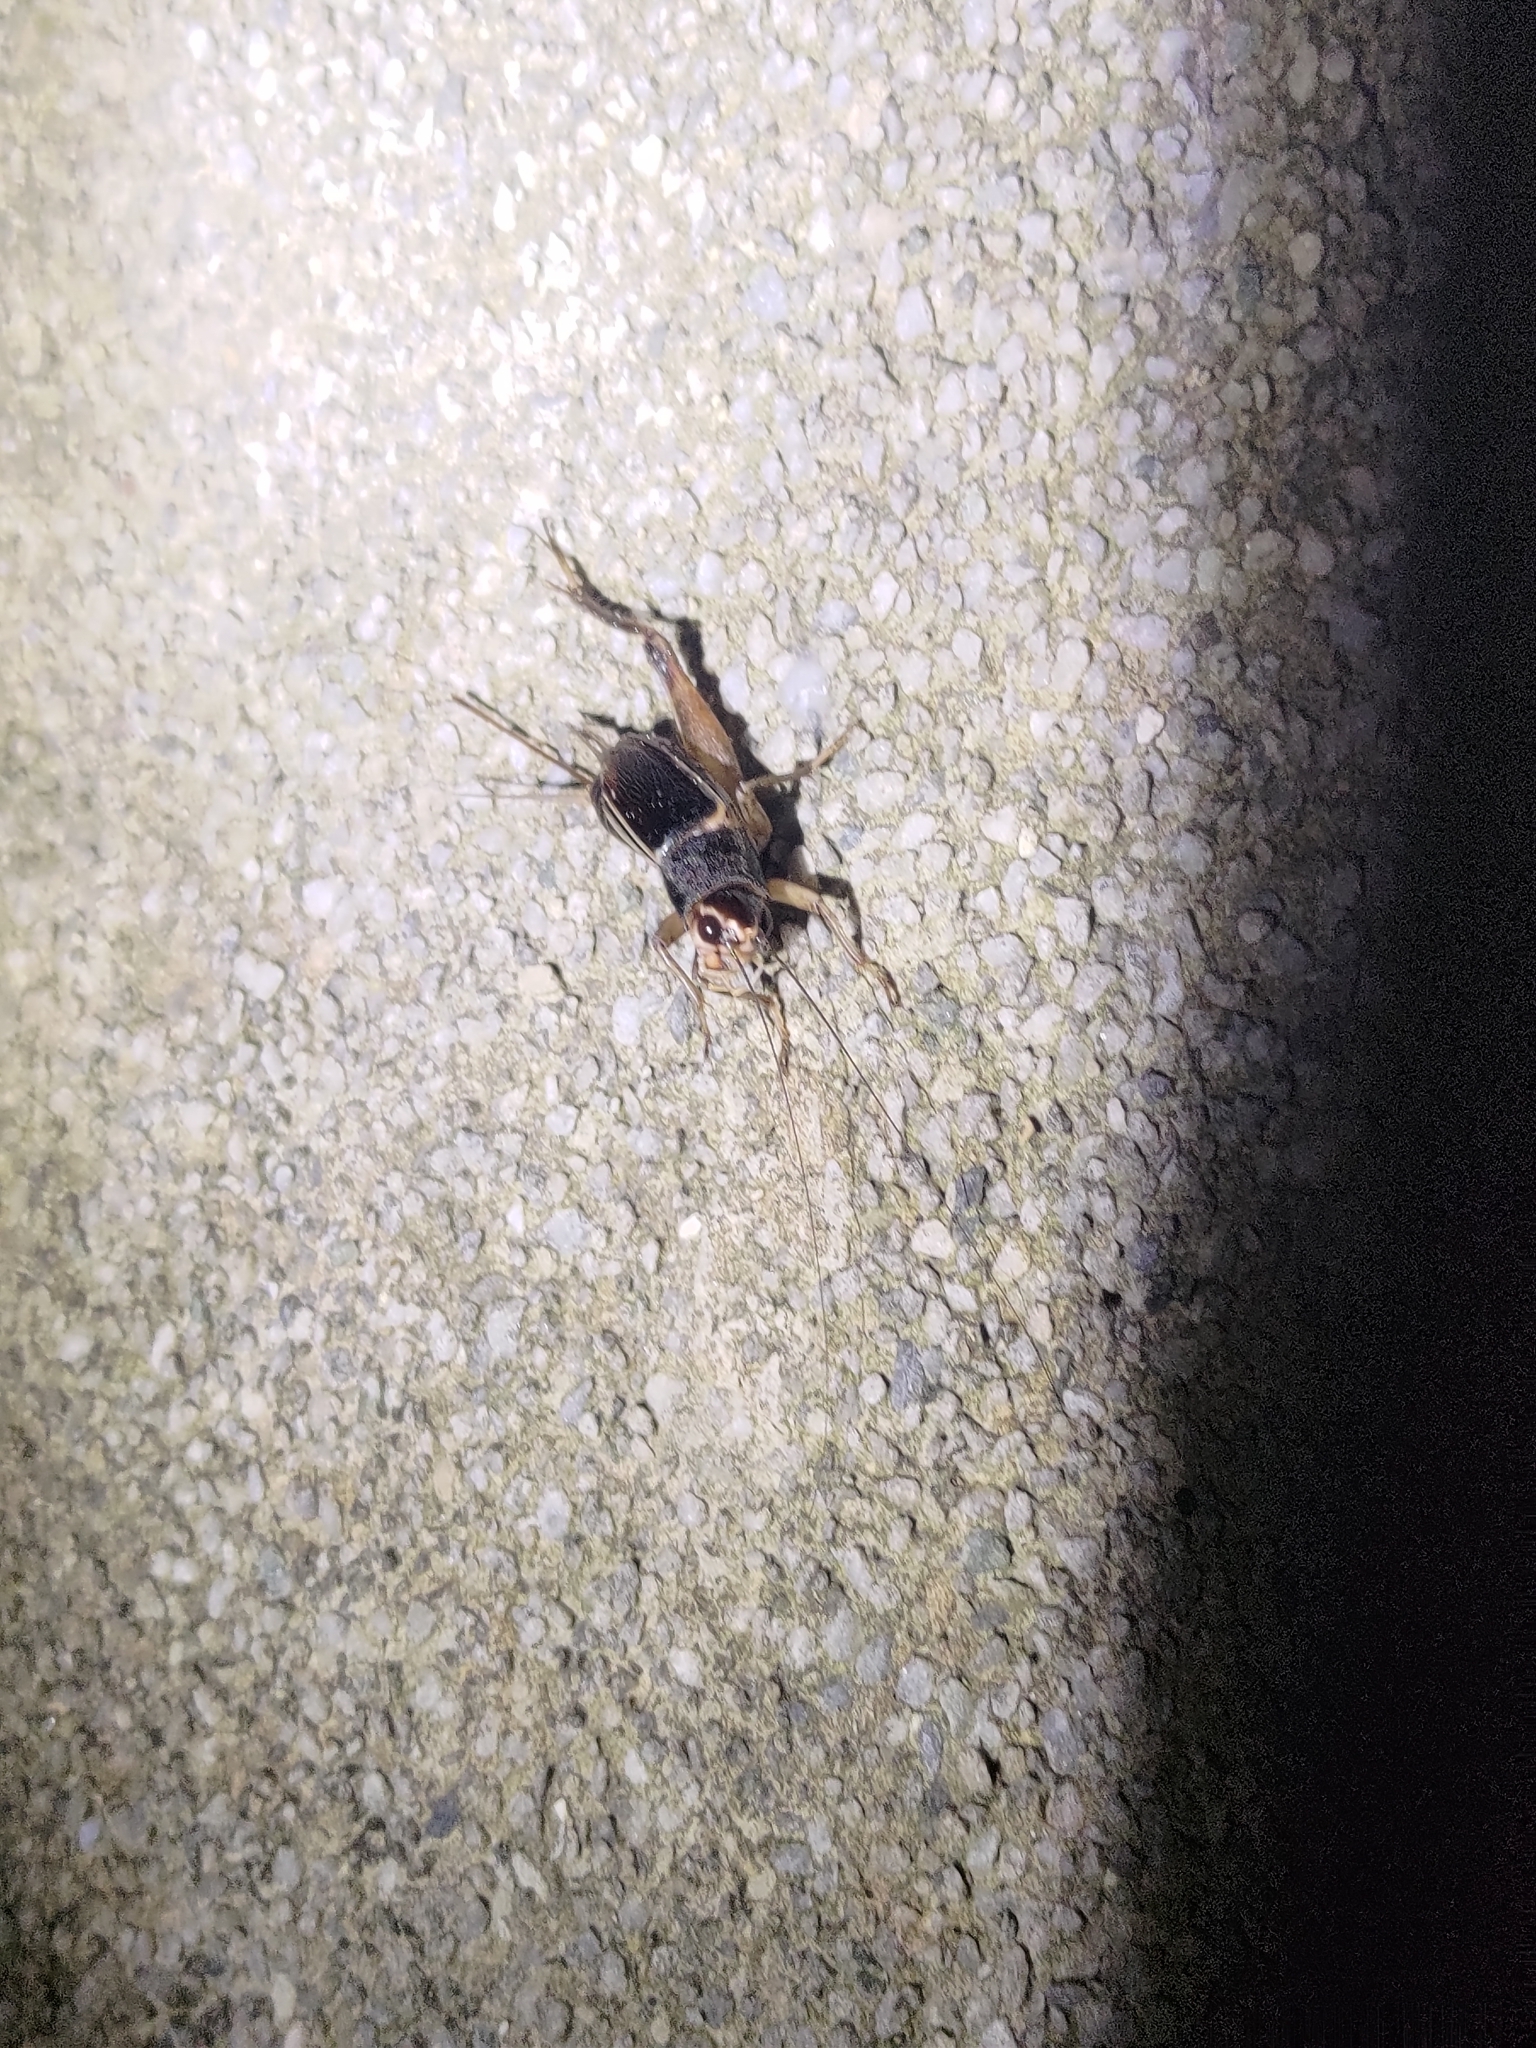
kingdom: Animalia
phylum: Arthropoda
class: Insecta
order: Orthoptera
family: Gryllidae
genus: Teleogryllus
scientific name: Teleogryllus mitratus
